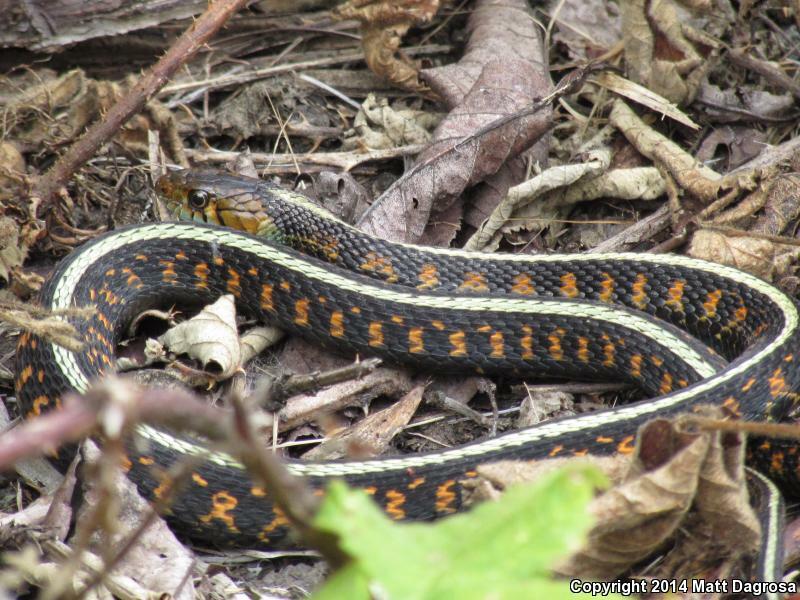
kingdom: Animalia
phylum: Chordata
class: Squamata
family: Colubridae
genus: Thamnophis
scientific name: Thamnophis sirtalis
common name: Common garter snake
